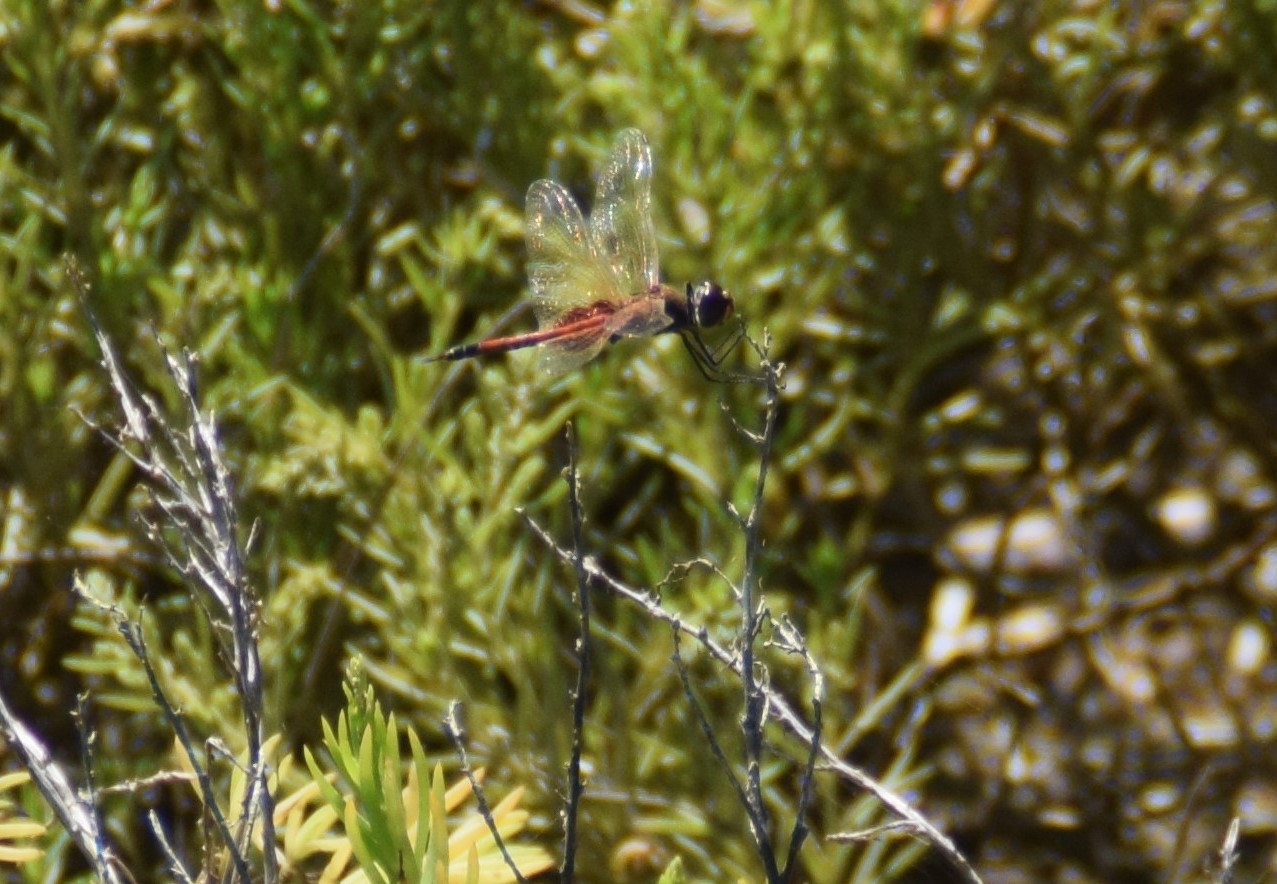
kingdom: Animalia
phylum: Arthropoda
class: Insecta
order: Odonata
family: Libellulidae
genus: Tramea
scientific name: Tramea loewii
